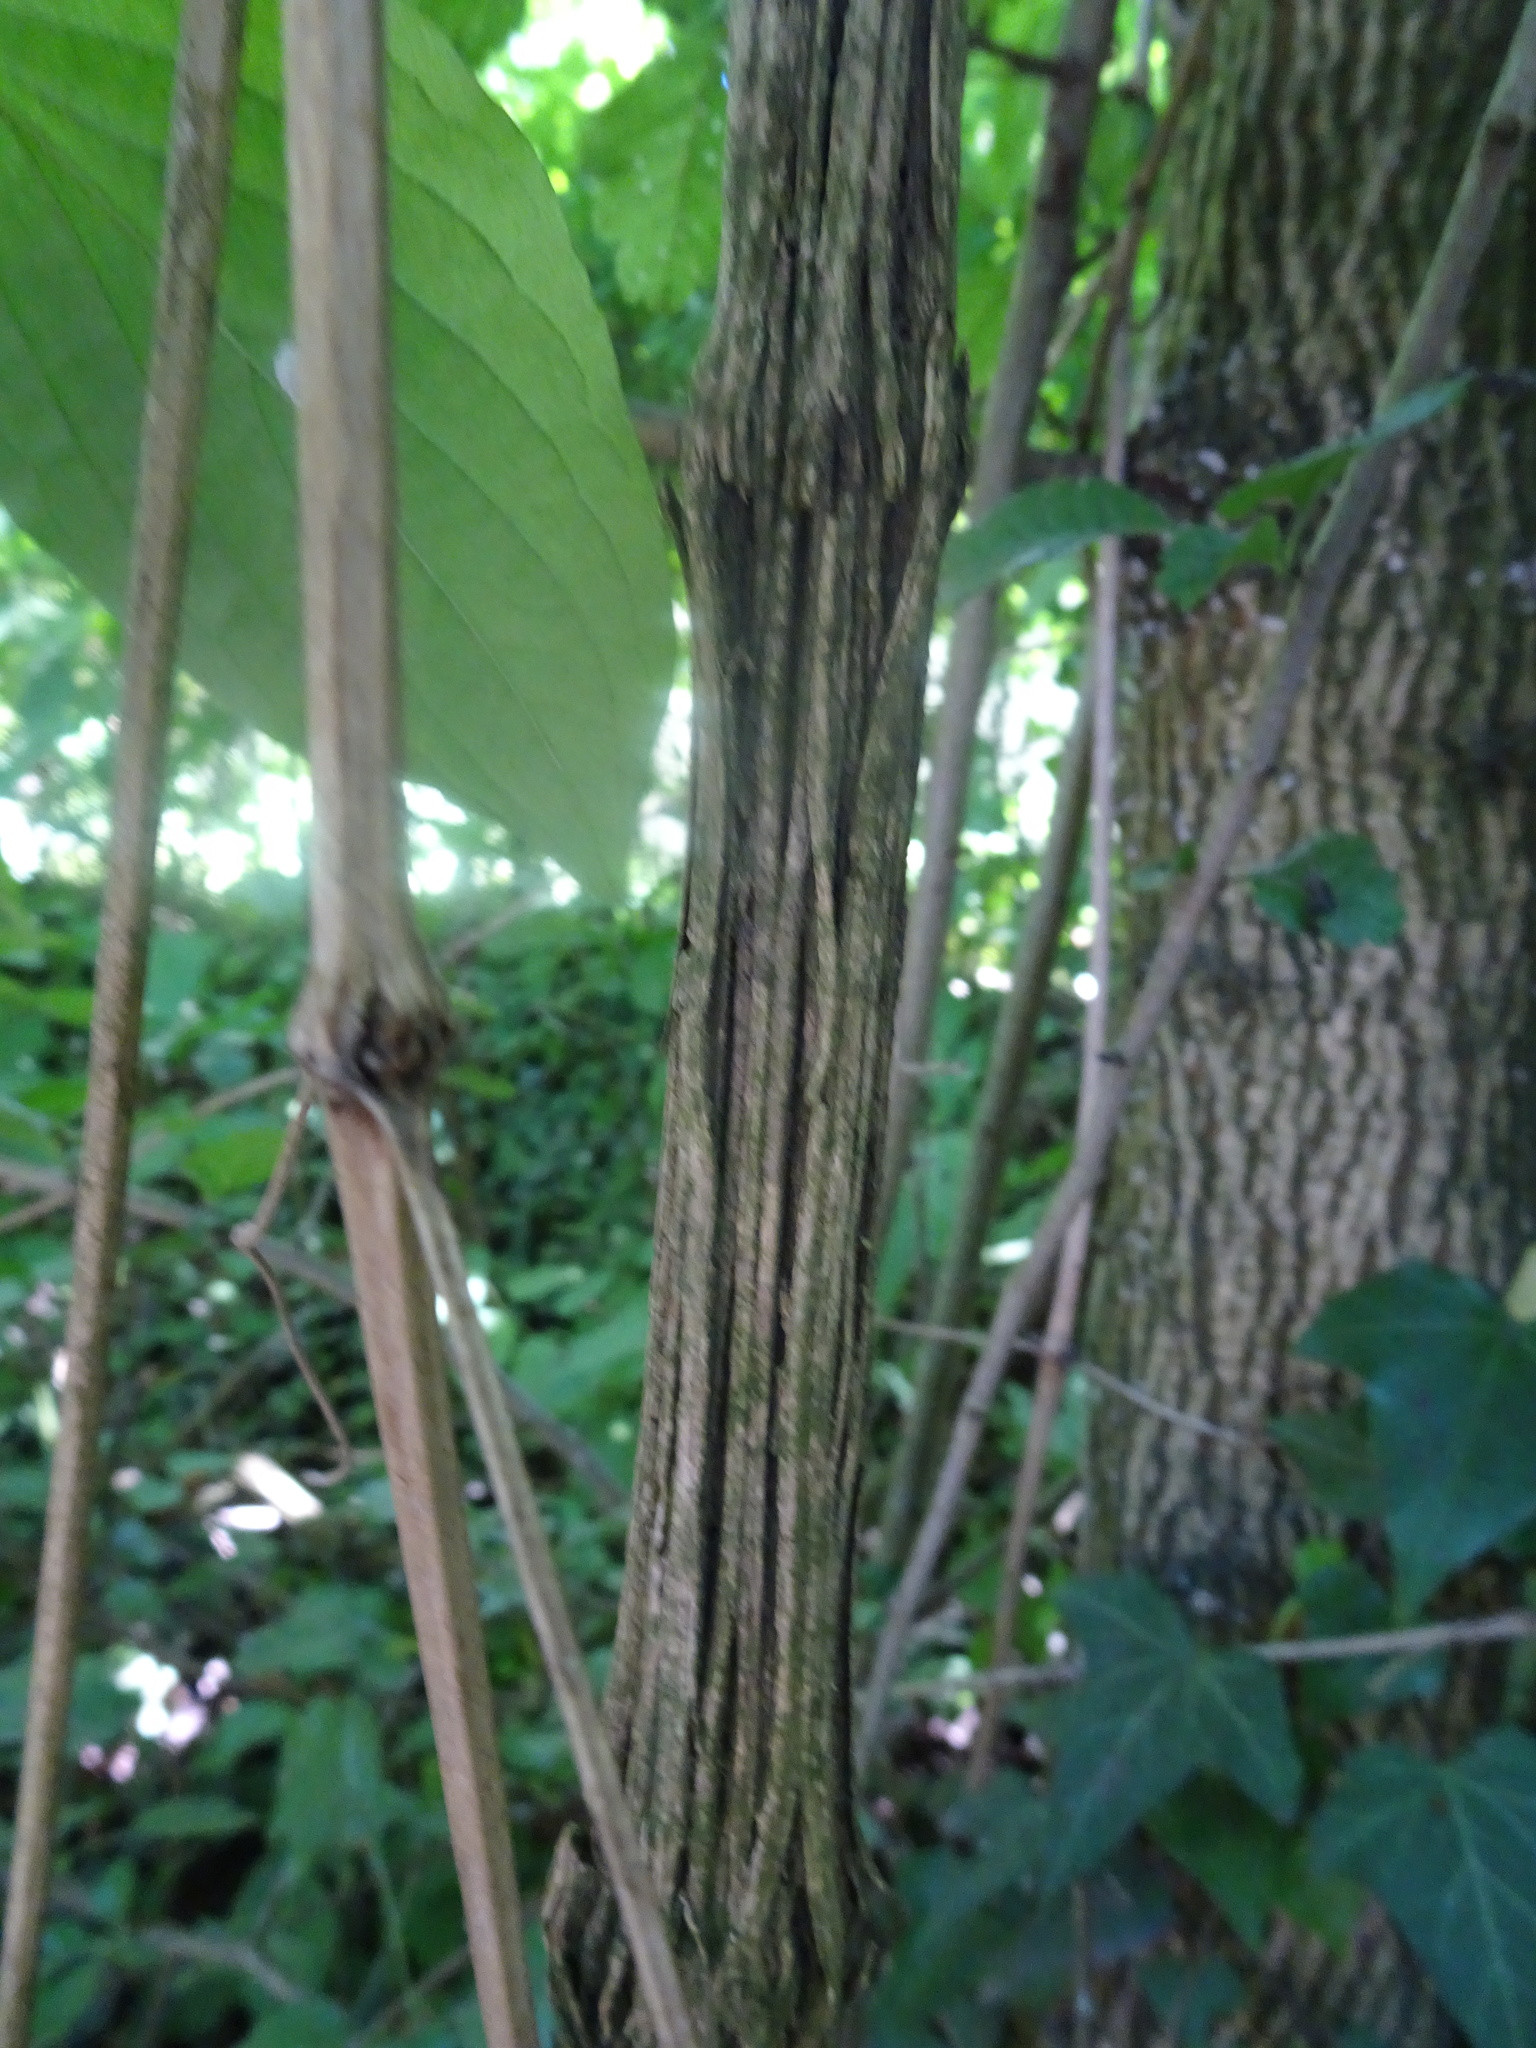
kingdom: Plantae
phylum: Tracheophyta
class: Magnoliopsida
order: Ranunculales
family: Ranunculaceae
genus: Clematis
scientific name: Clematis vitalba
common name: Evergreen clematis
